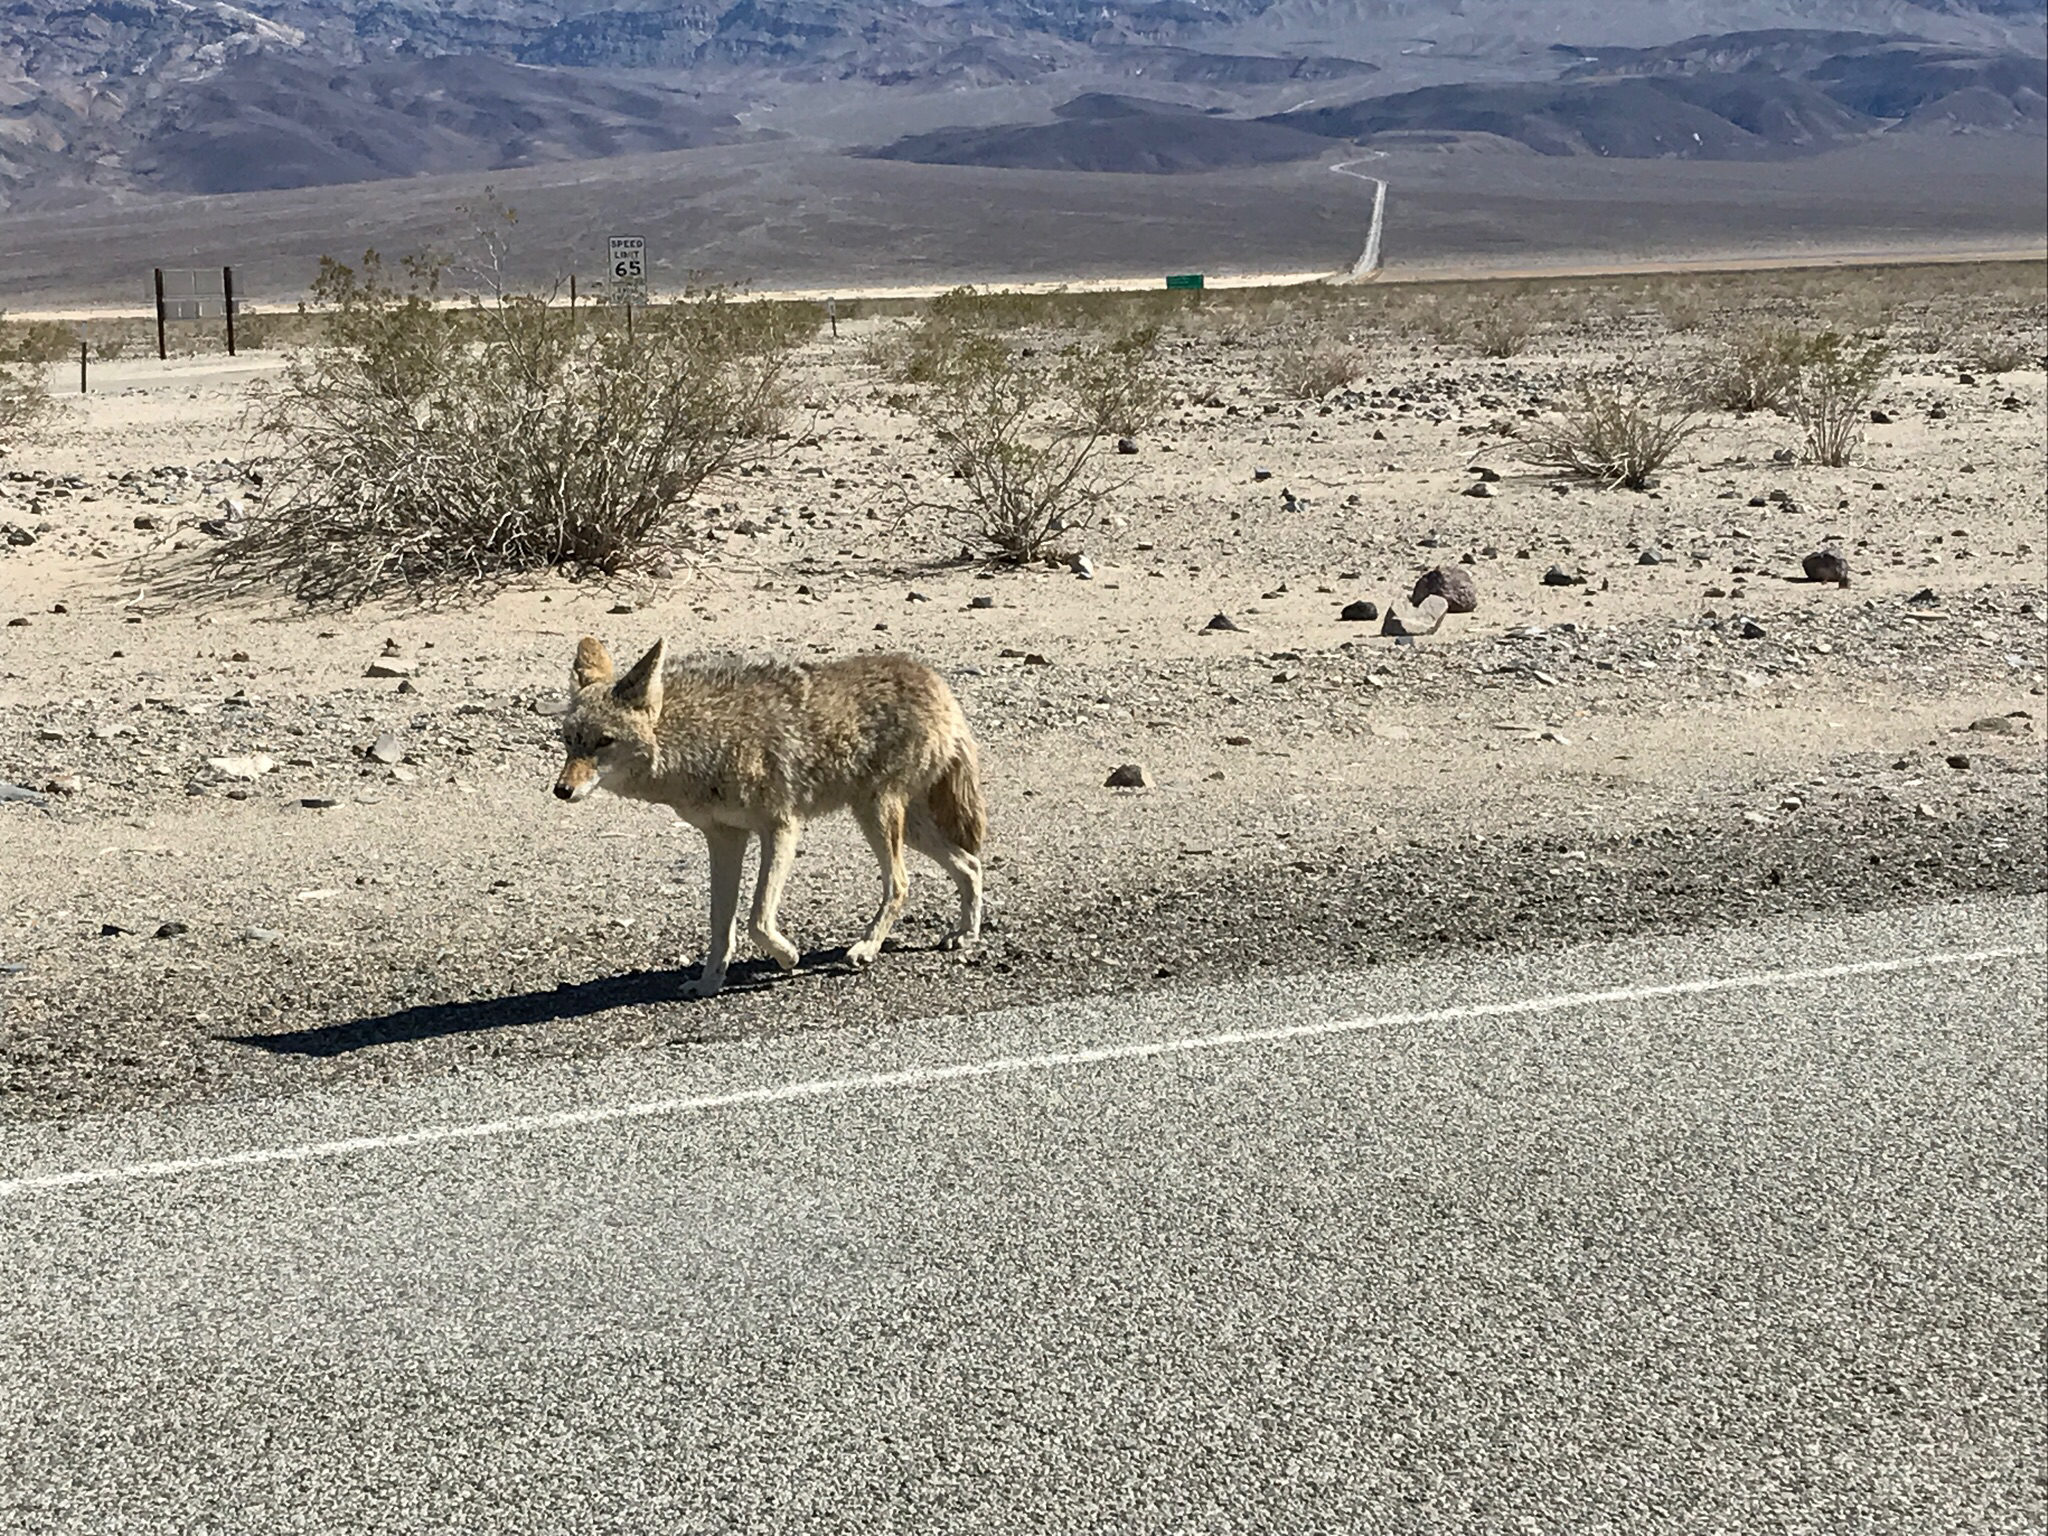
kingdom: Animalia
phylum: Chordata
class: Mammalia
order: Carnivora
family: Canidae
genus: Canis
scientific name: Canis latrans
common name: Coyote
